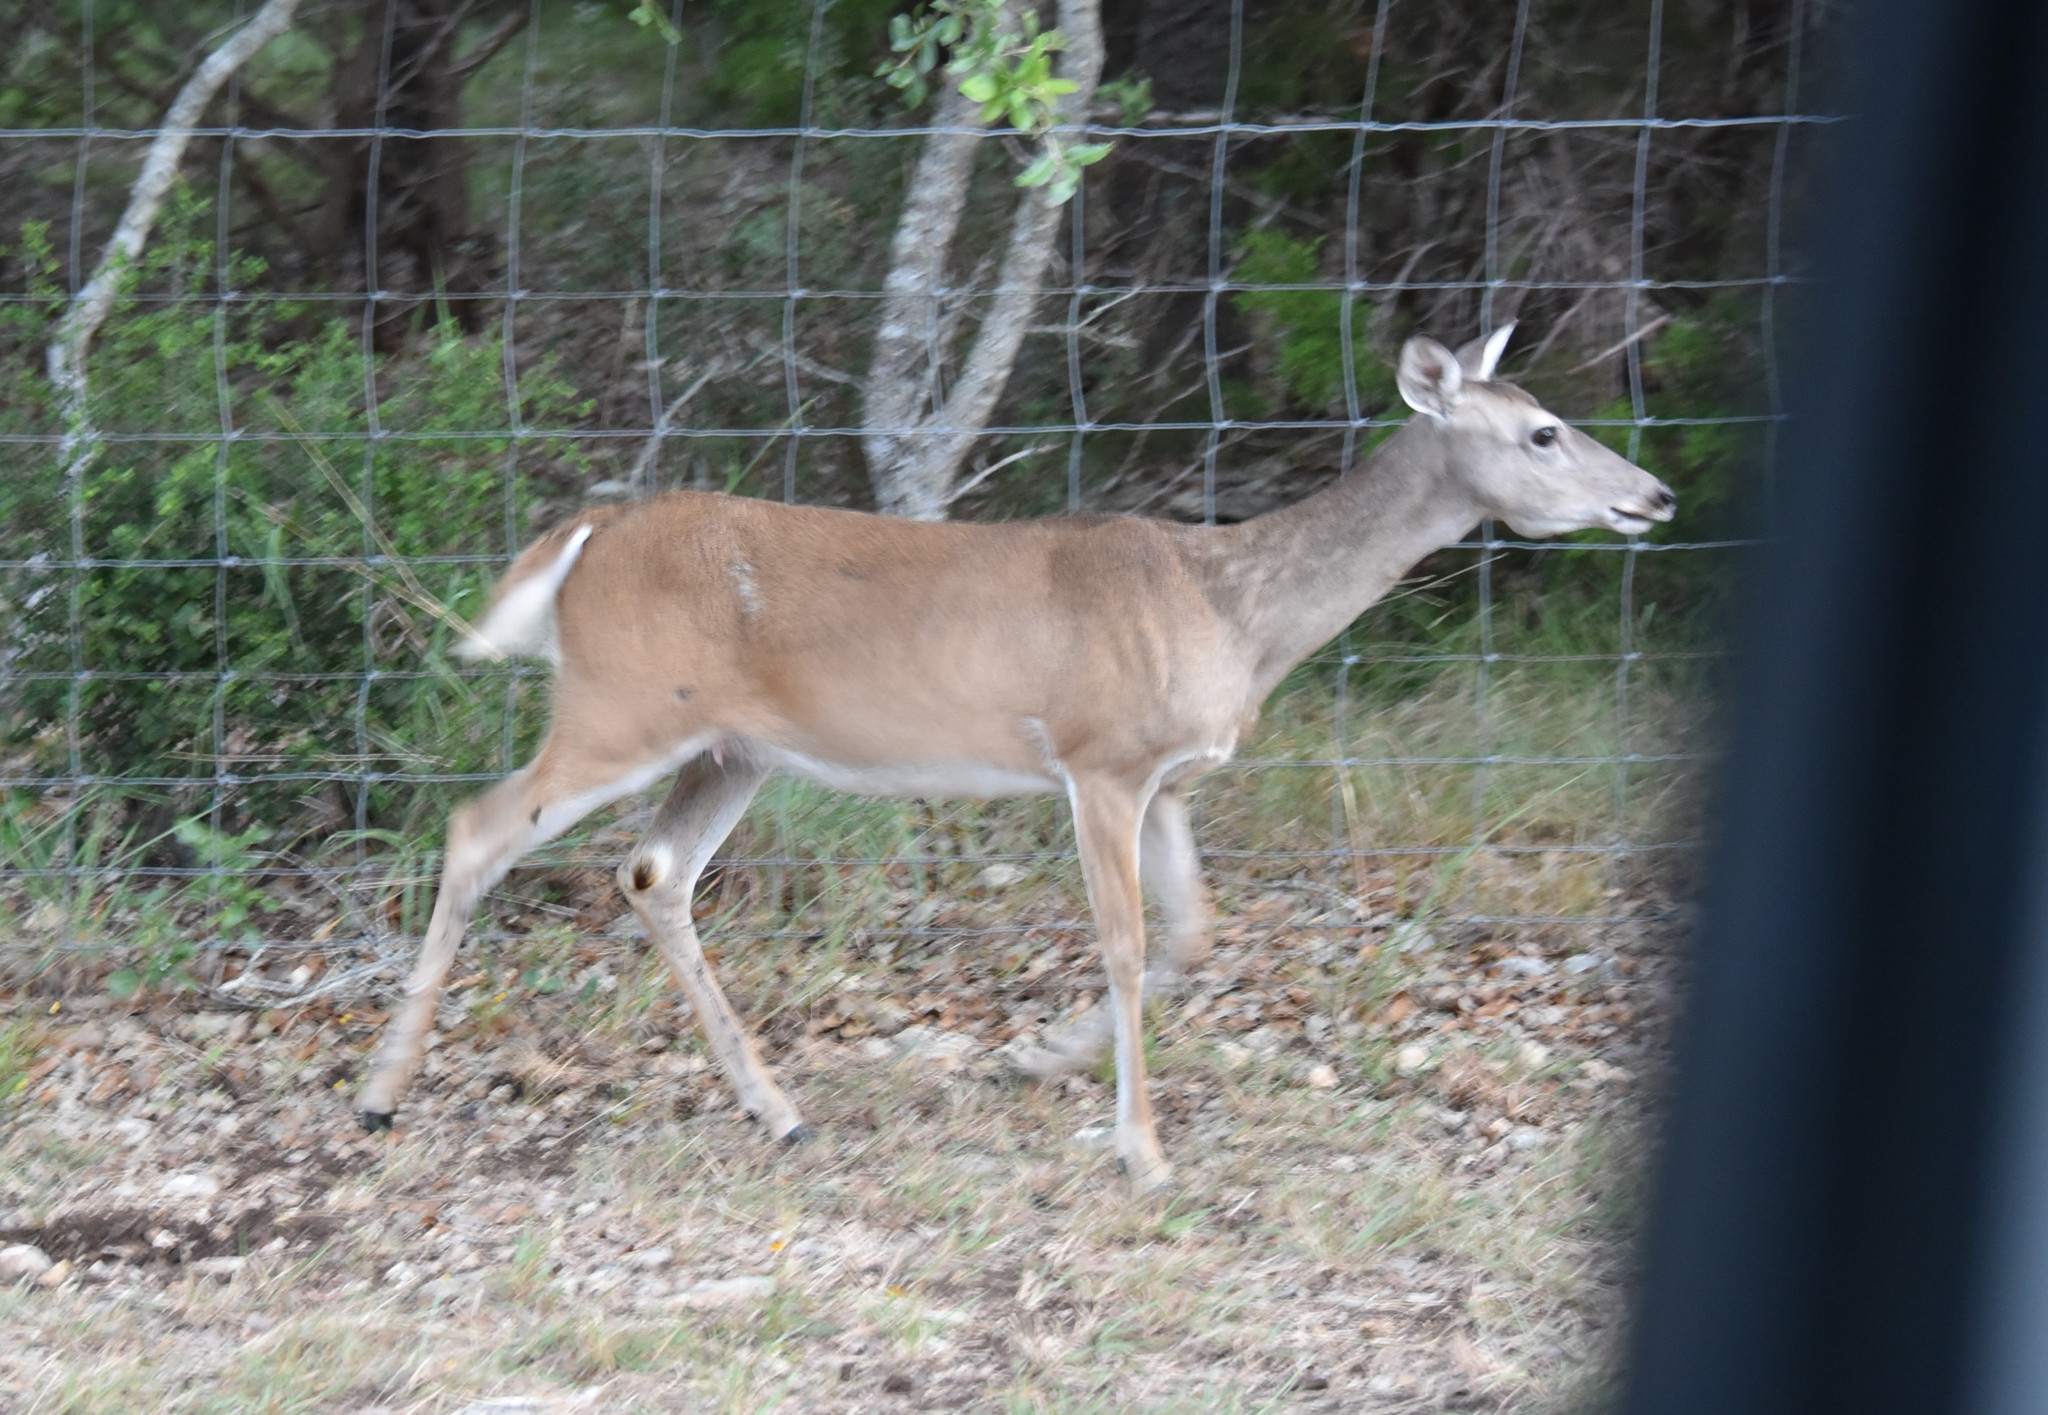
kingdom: Animalia
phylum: Chordata
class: Mammalia
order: Artiodactyla
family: Cervidae
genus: Odocoileus
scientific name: Odocoileus virginianus
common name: White-tailed deer
